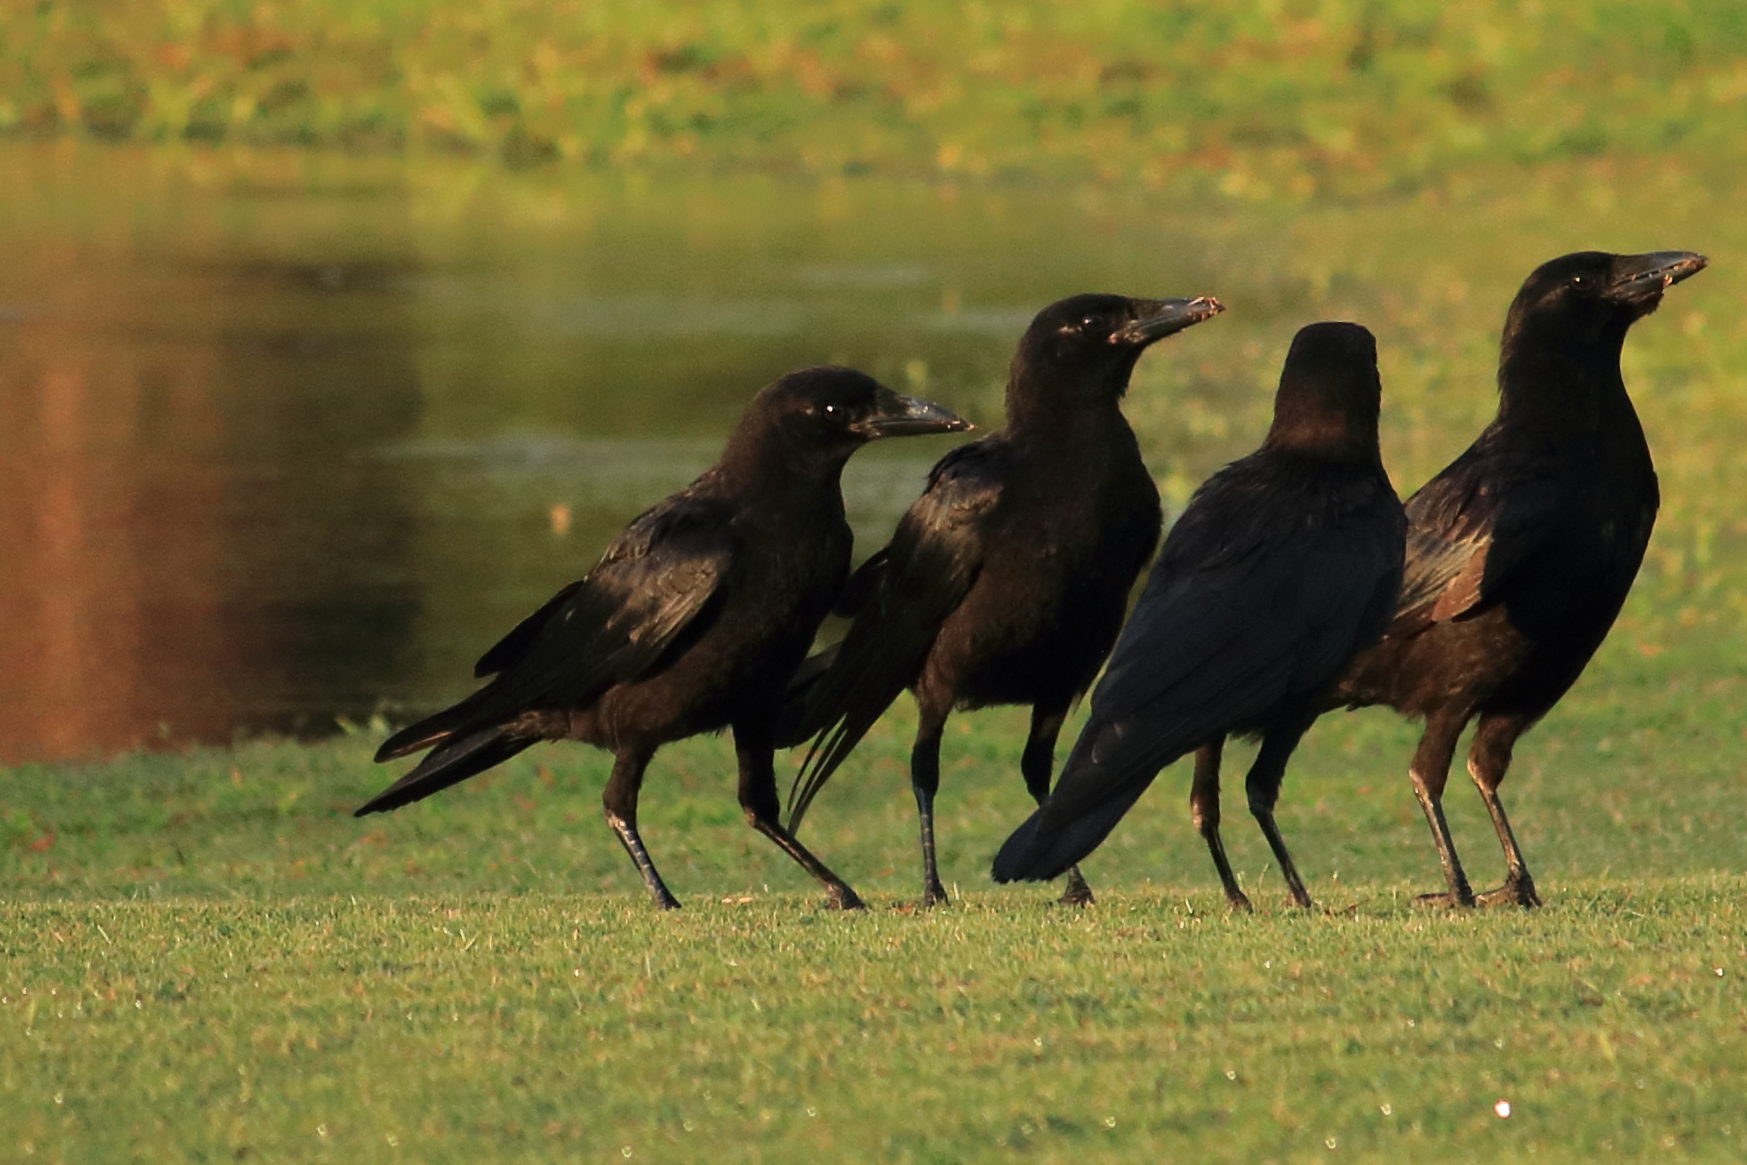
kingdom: Animalia
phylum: Chordata
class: Aves
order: Passeriformes
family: Corvidae
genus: Corvus
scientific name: Corvus brachyrhynchos
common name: American crow
